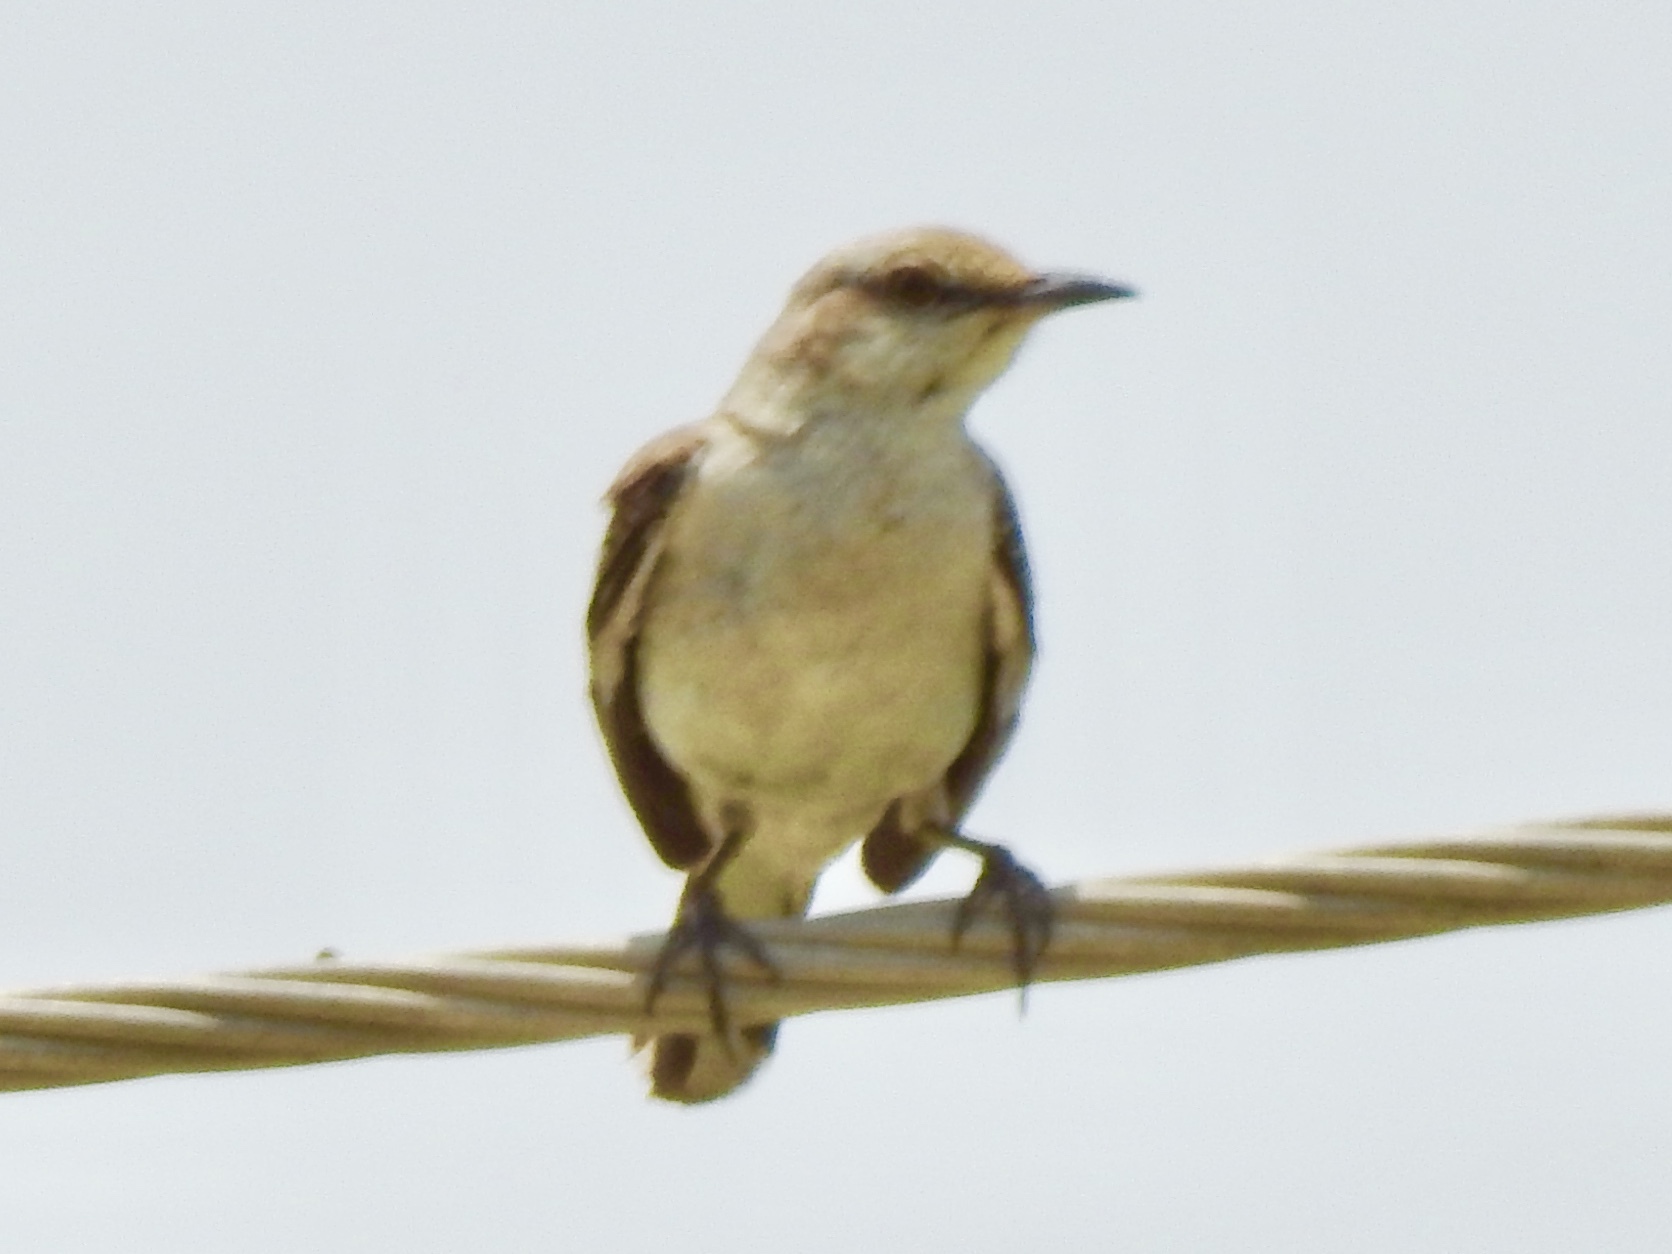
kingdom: Animalia
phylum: Chordata
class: Aves
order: Passeriformes
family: Mimidae
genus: Mimus
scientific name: Mimus polyglottos
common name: Northern mockingbird
